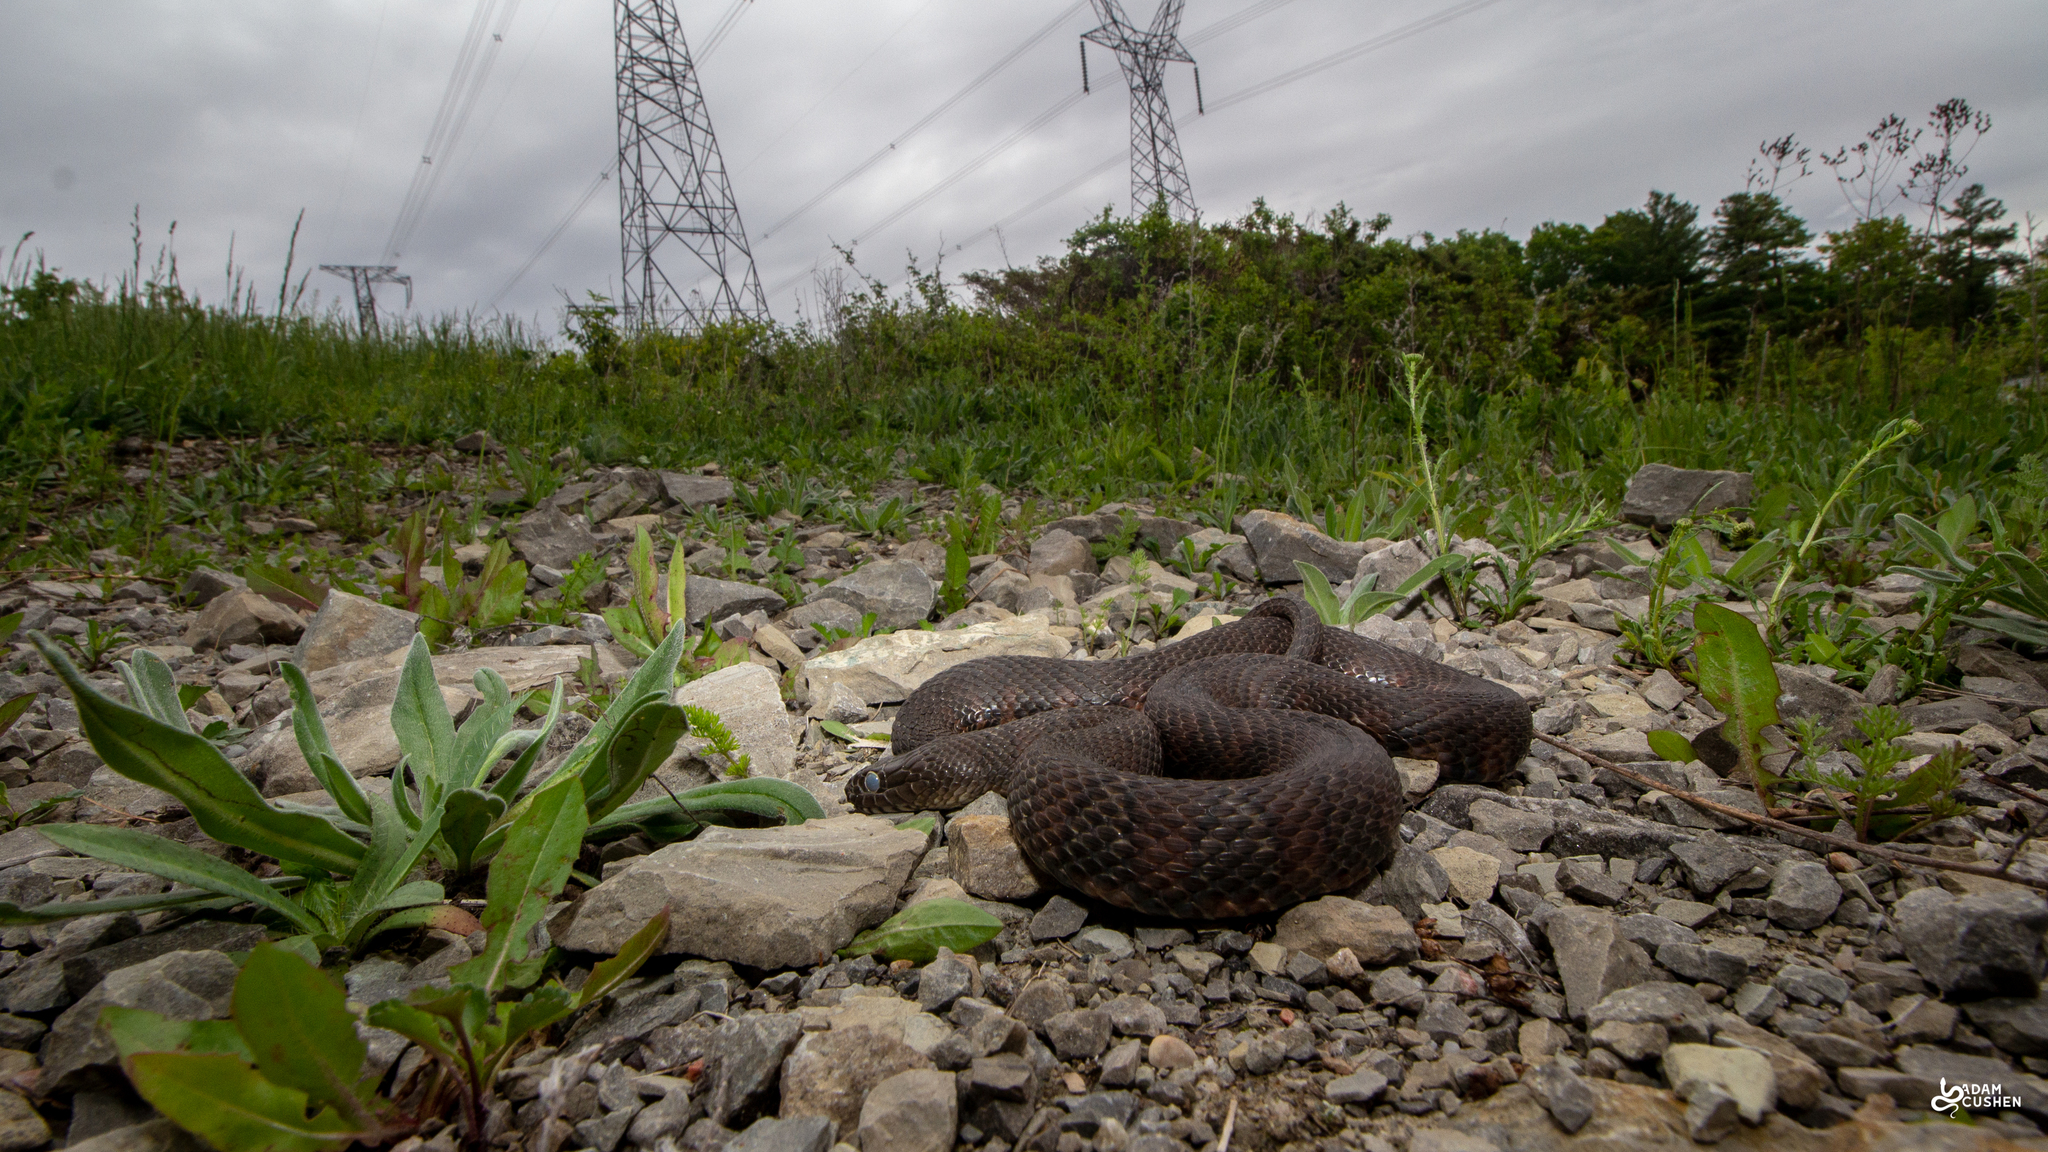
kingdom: Animalia
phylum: Chordata
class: Squamata
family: Colubridae
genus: Nerodia
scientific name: Nerodia sipedon
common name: Northern water snake
